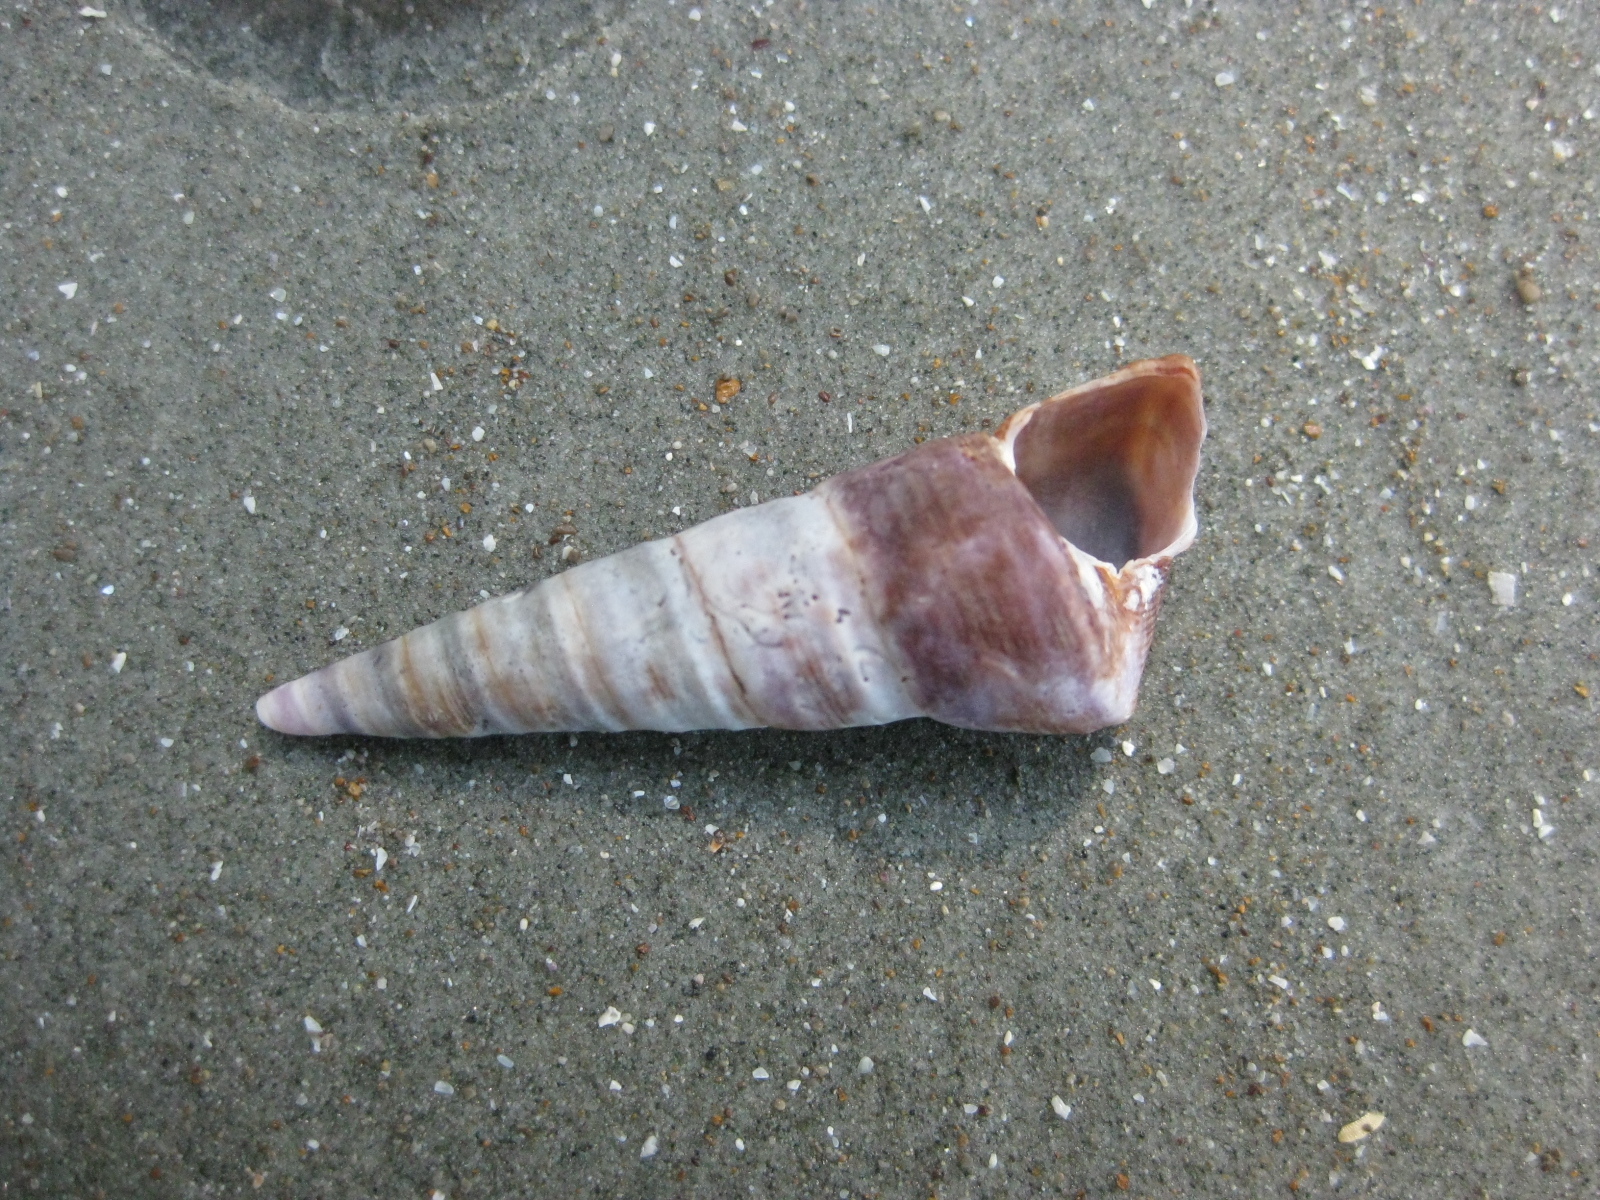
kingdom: Animalia
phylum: Mollusca
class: Gastropoda
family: Turritellidae
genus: Maoricolpus
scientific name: Maoricolpus roseus
